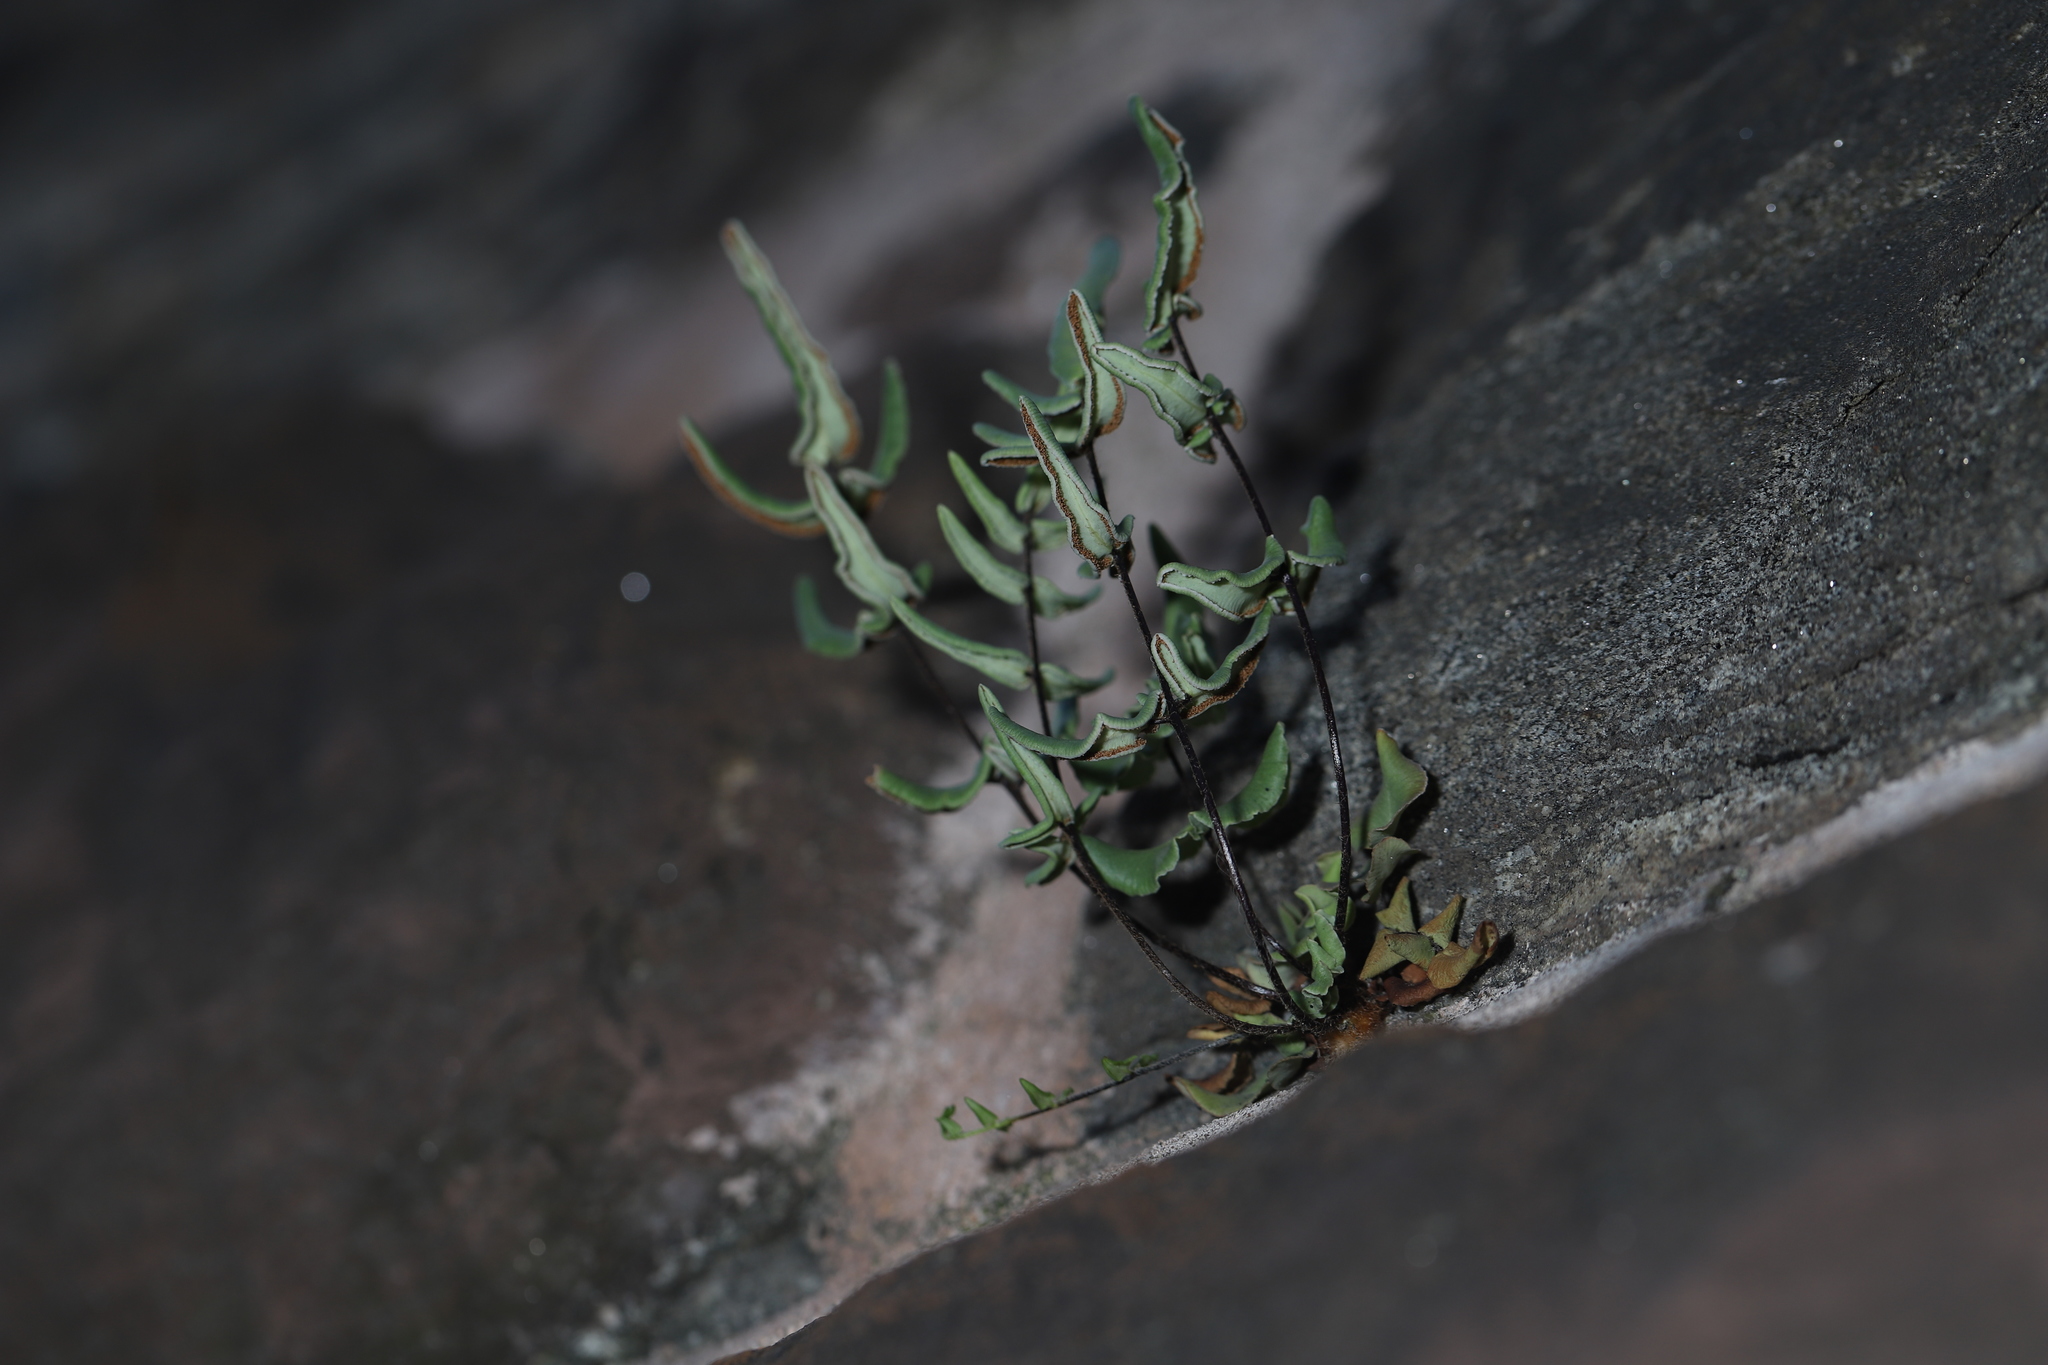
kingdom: Plantae
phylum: Tracheophyta
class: Polypodiopsida
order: Polypodiales
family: Pteridaceae
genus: Pellaea
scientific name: Pellaea atropurpurea
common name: Hairy cliffbrake
